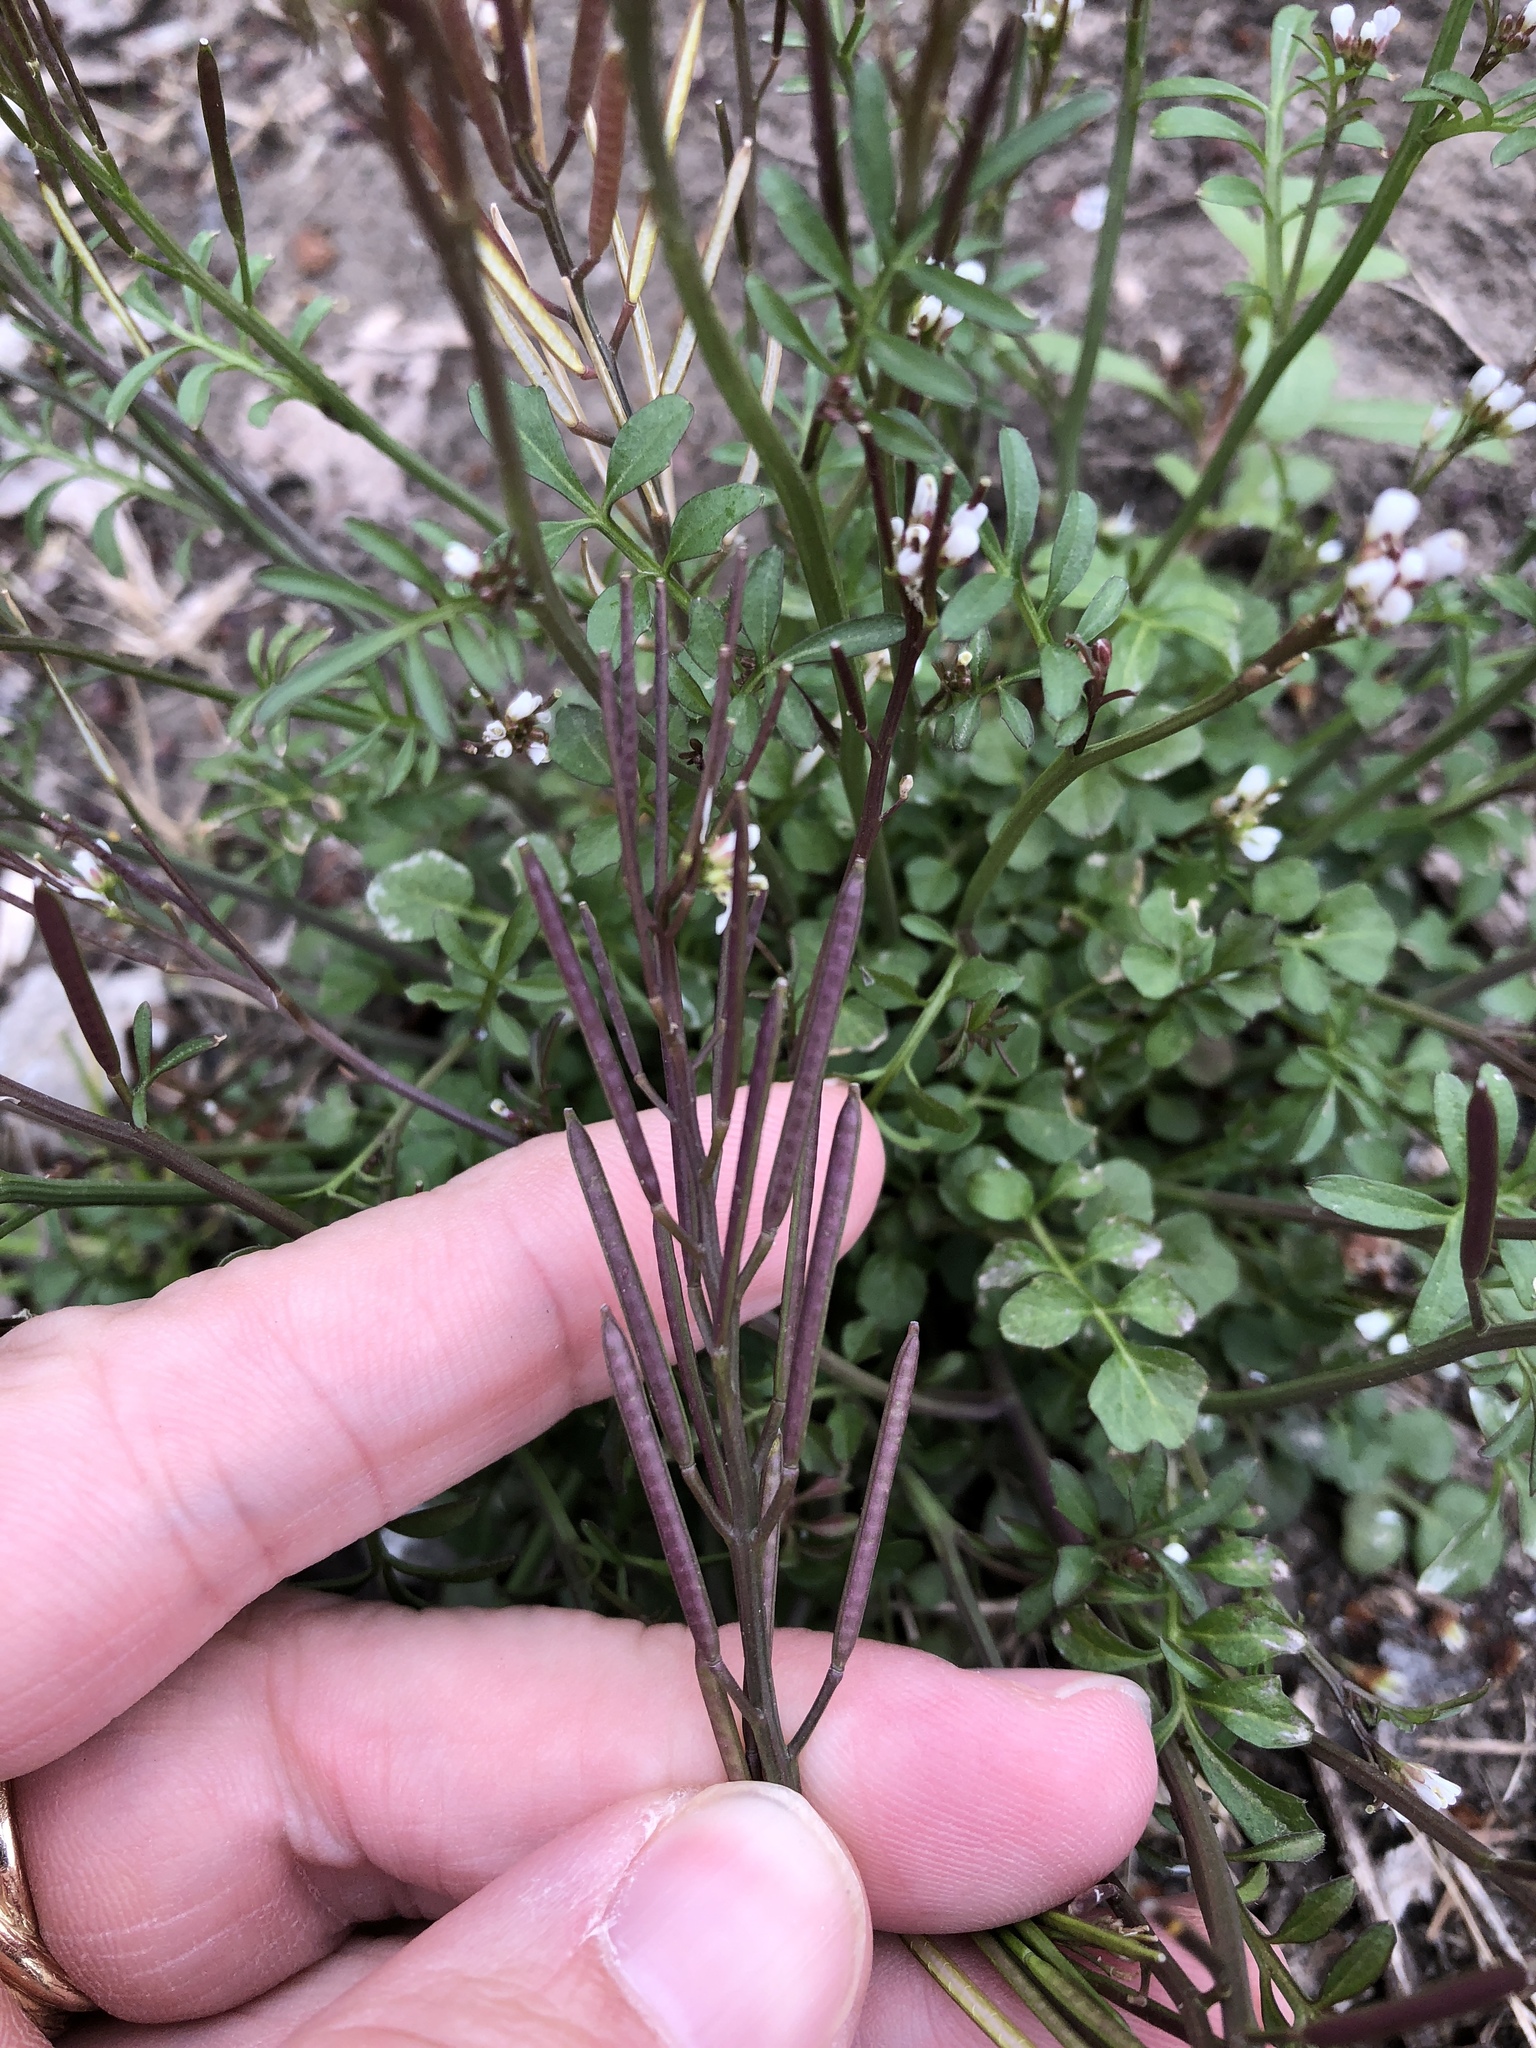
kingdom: Plantae
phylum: Tracheophyta
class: Magnoliopsida
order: Brassicales
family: Brassicaceae
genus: Cardamine
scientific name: Cardamine hirsuta
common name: Hairy bittercress
